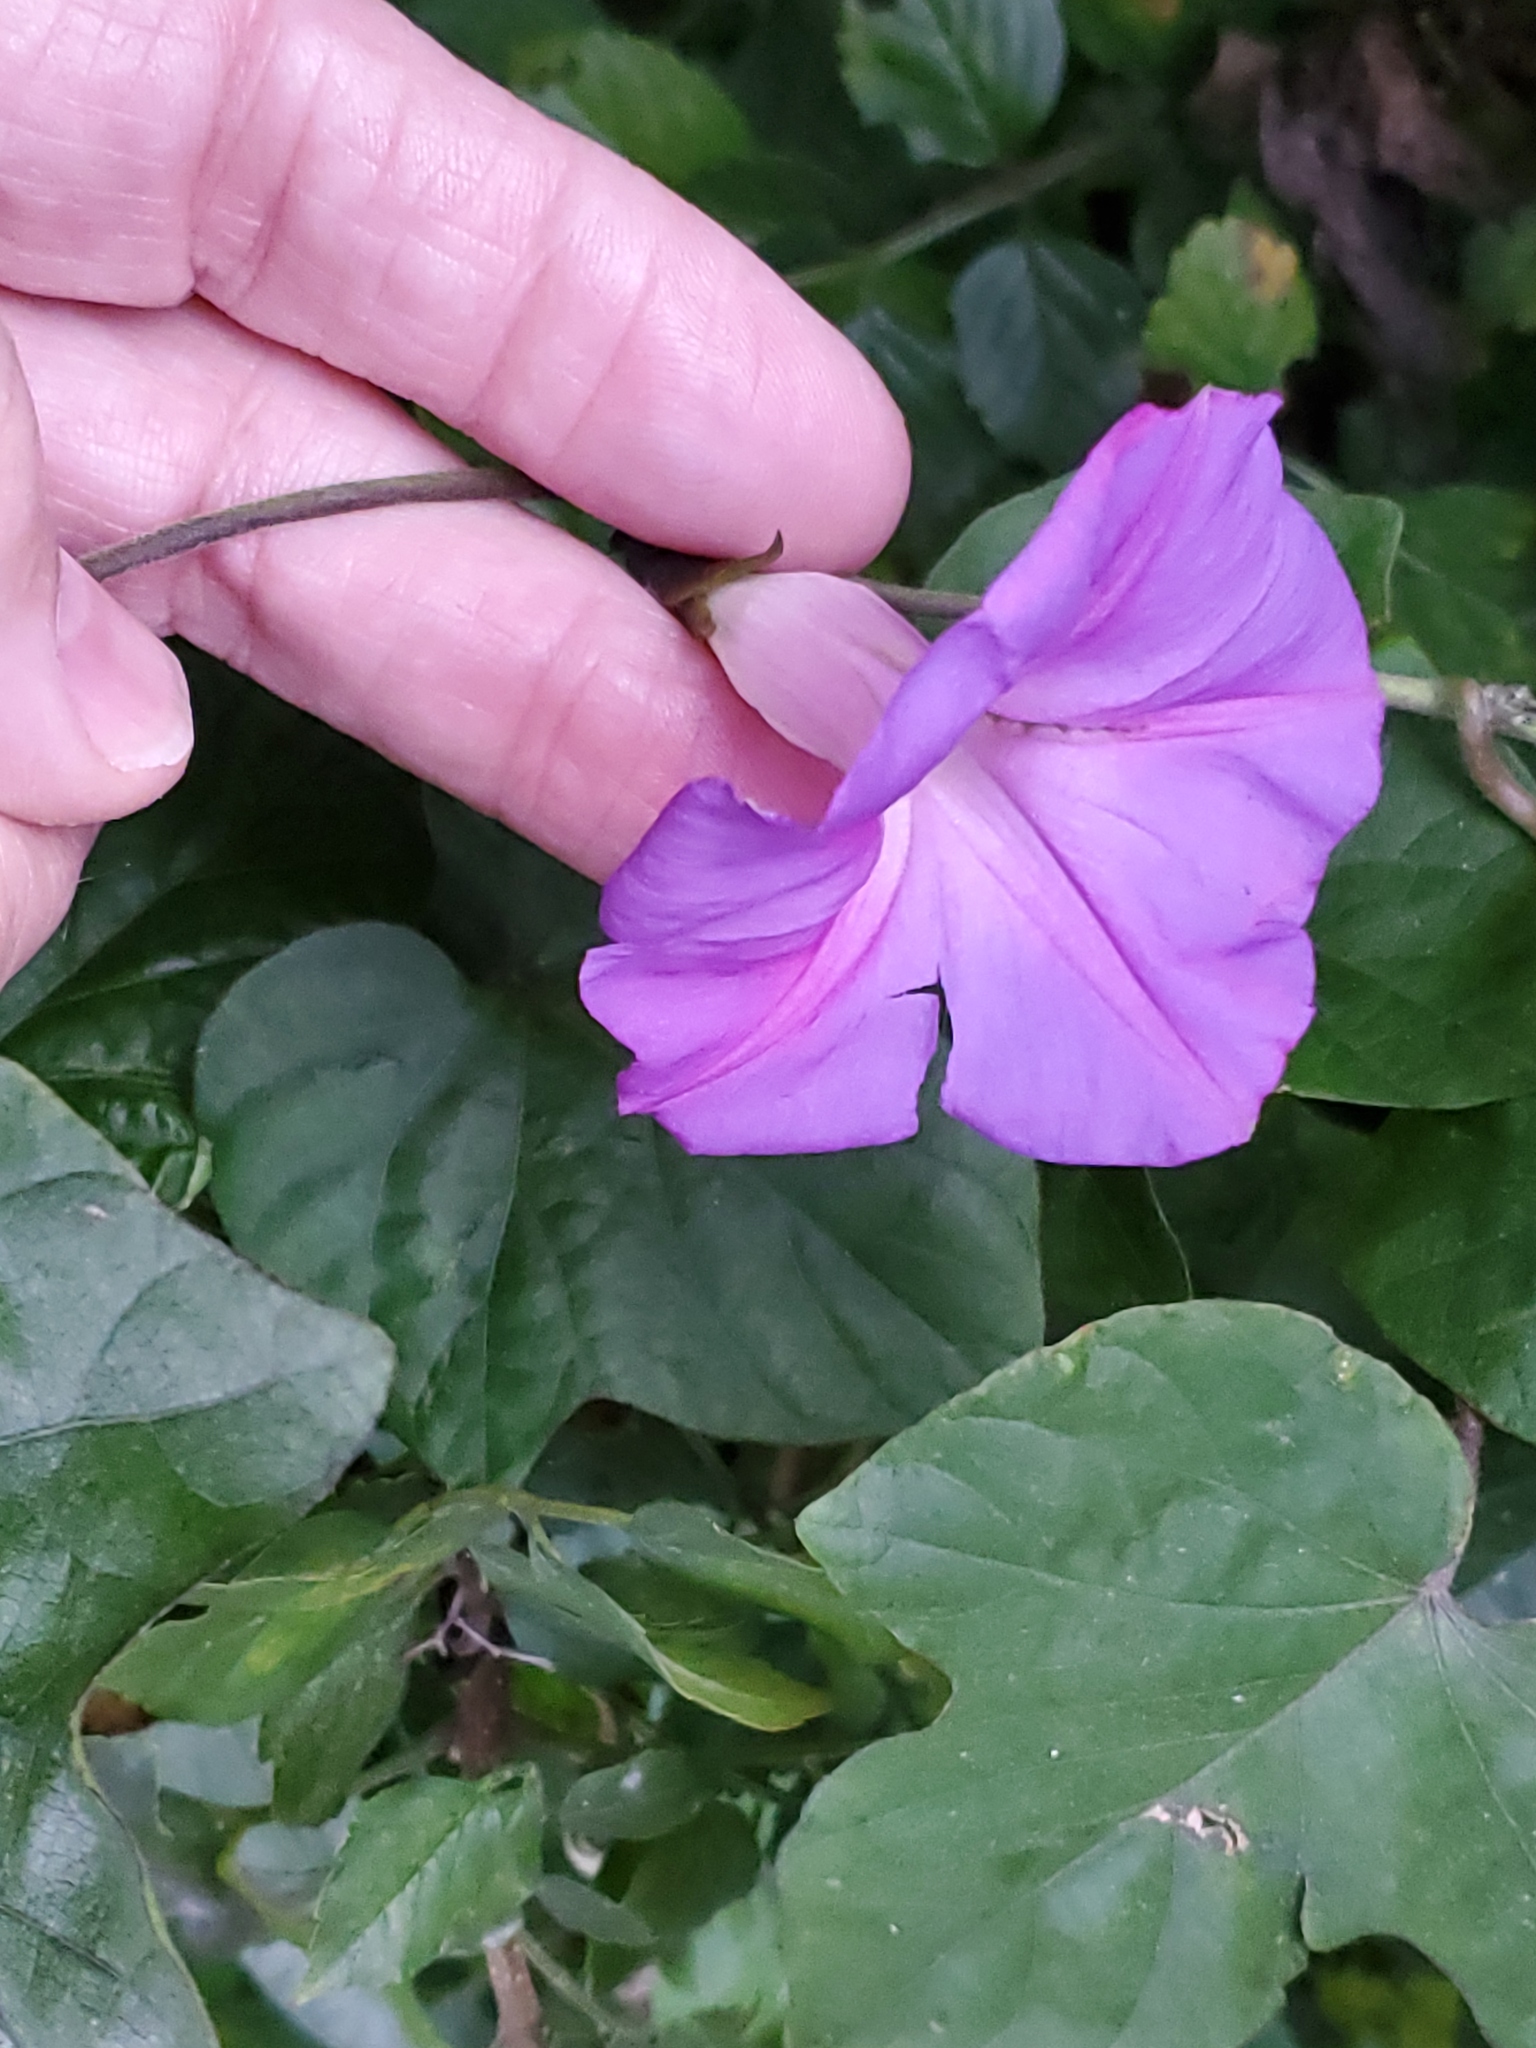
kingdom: Plantae
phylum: Tracheophyta
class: Magnoliopsida
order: Solanales
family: Convolvulaceae
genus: Ipomoea
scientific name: Ipomoea indica
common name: Blue dawnflower
